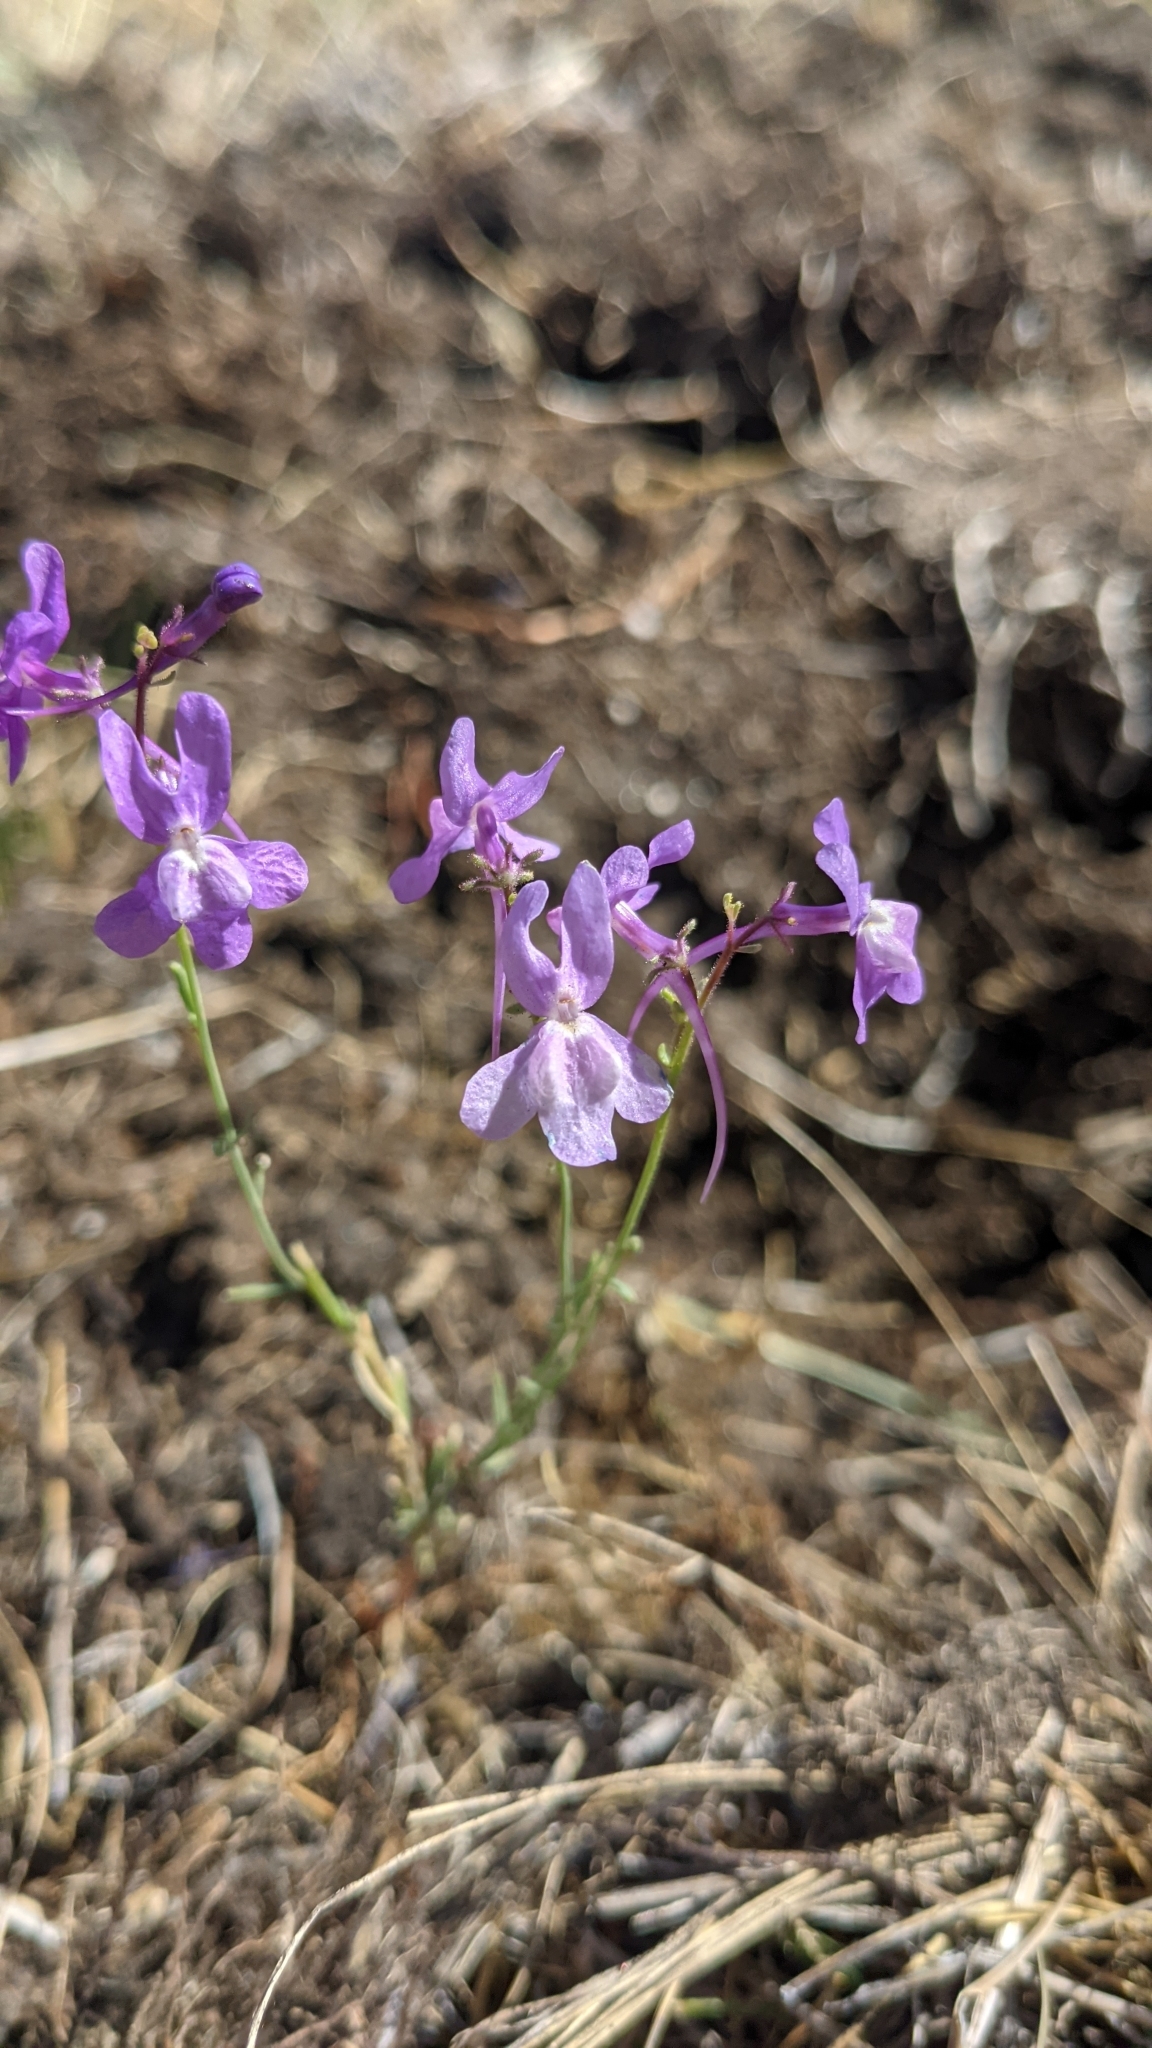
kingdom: Plantae
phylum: Tracheophyta
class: Magnoliopsida
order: Lamiales
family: Plantaginaceae
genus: Linaria
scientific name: Linaria elegans
